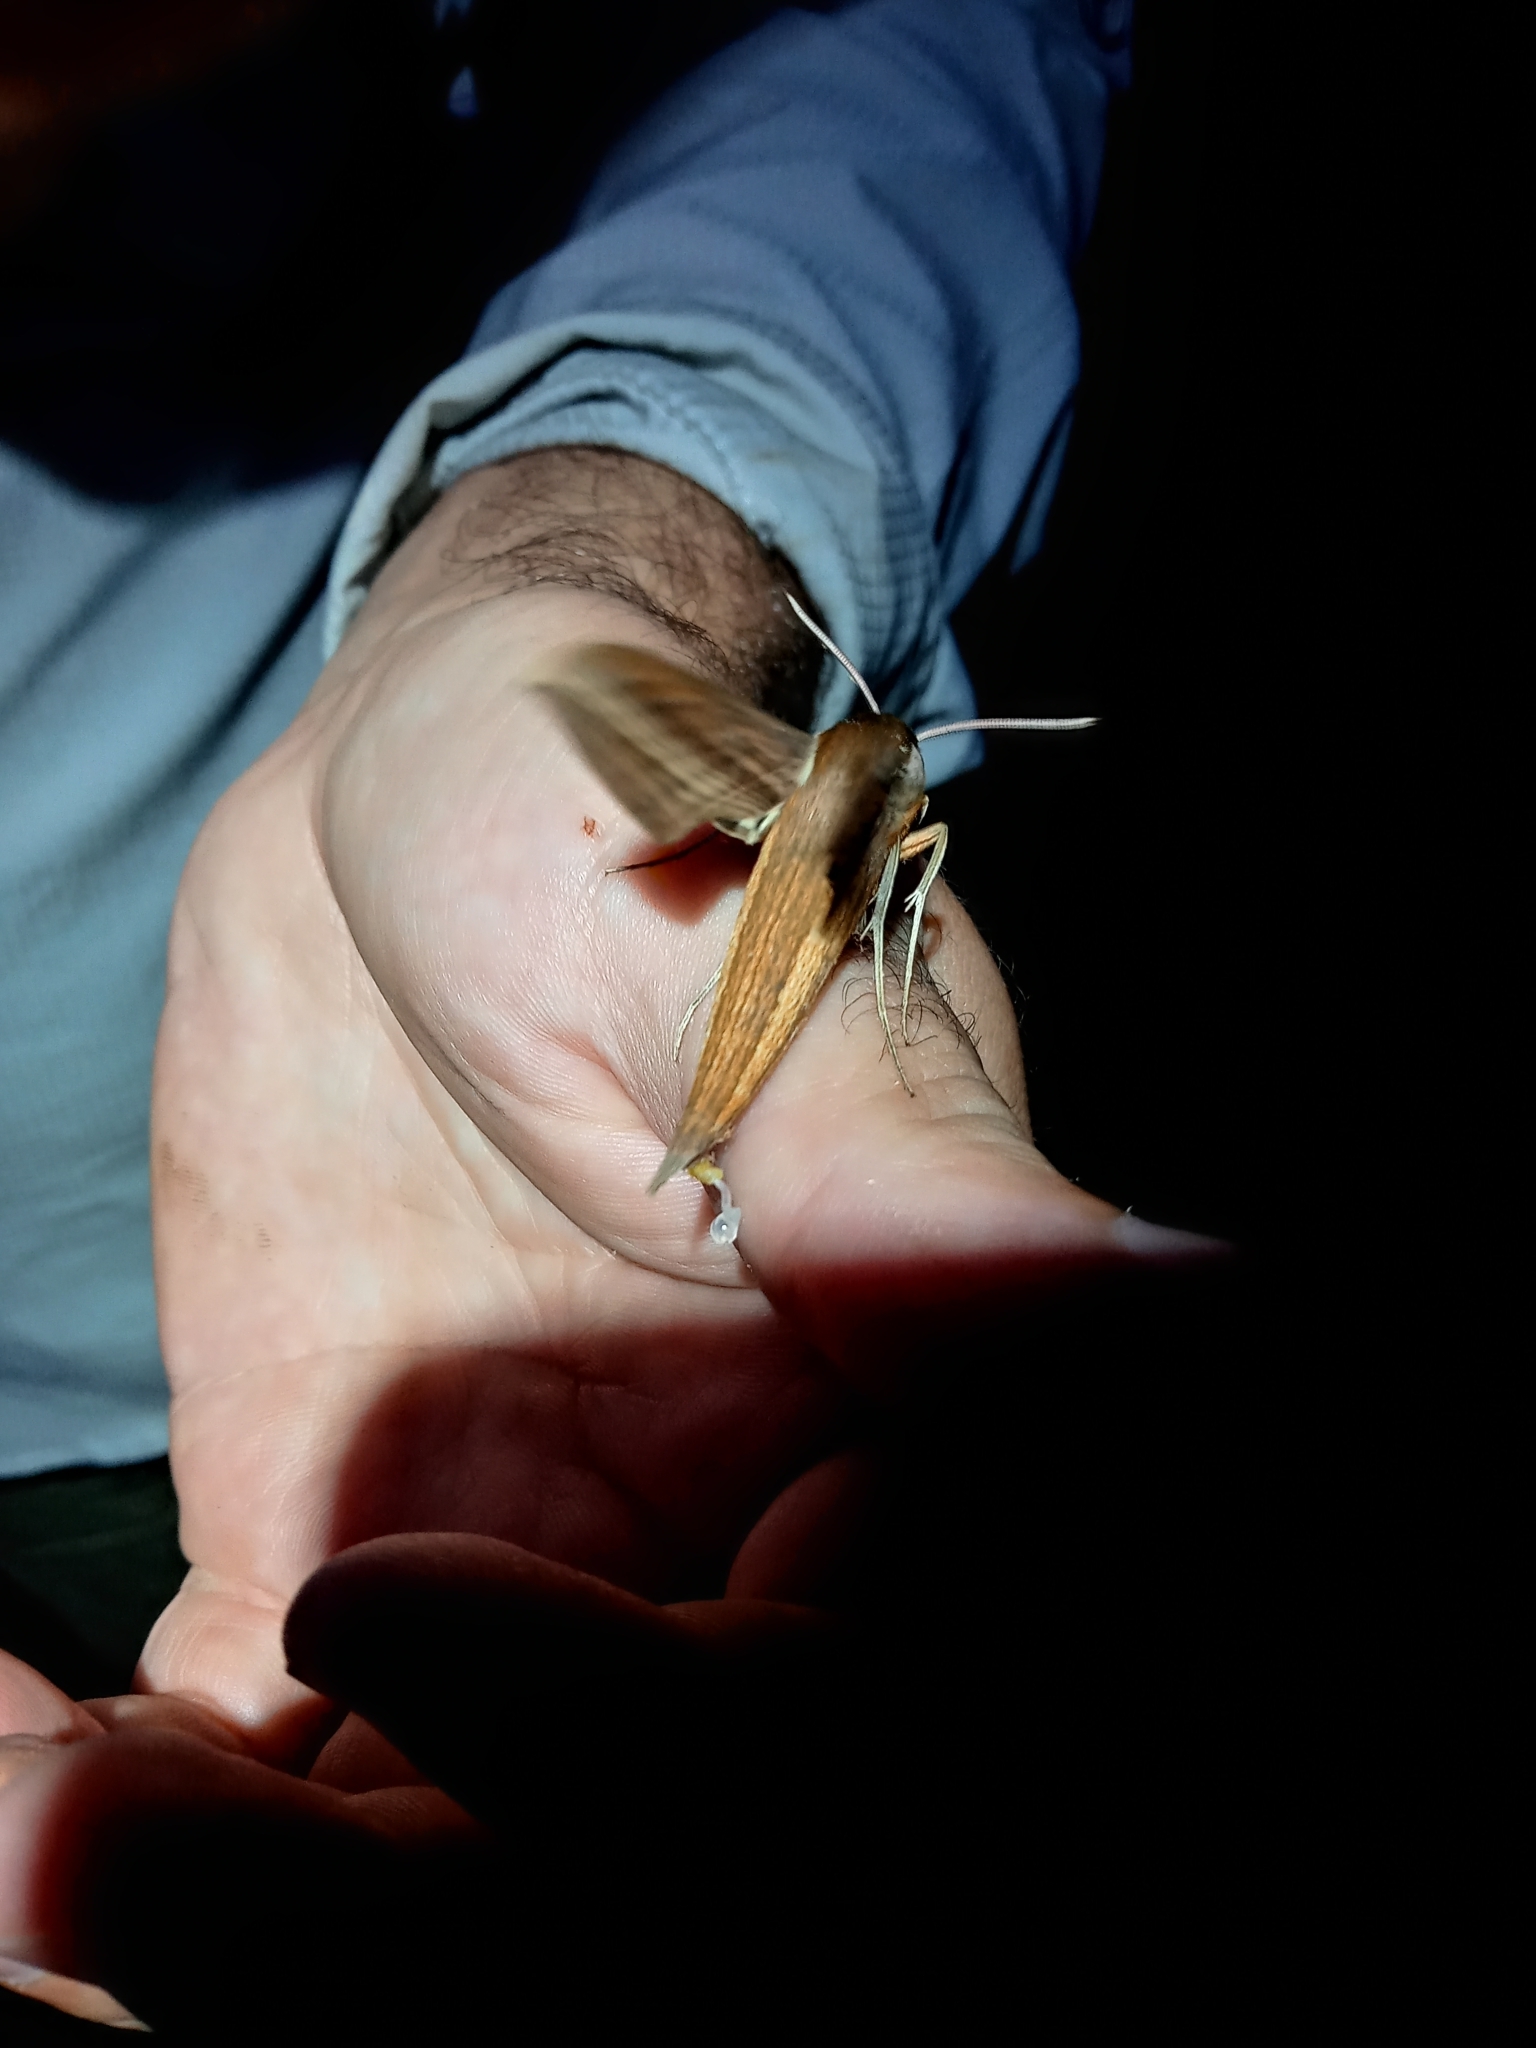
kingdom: Animalia
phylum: Arthropoda
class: Insecta
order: Lepidoptera
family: Sphingidae
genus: Xylophanes
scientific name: Xylophanes tersa
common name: Tersa sphinx
